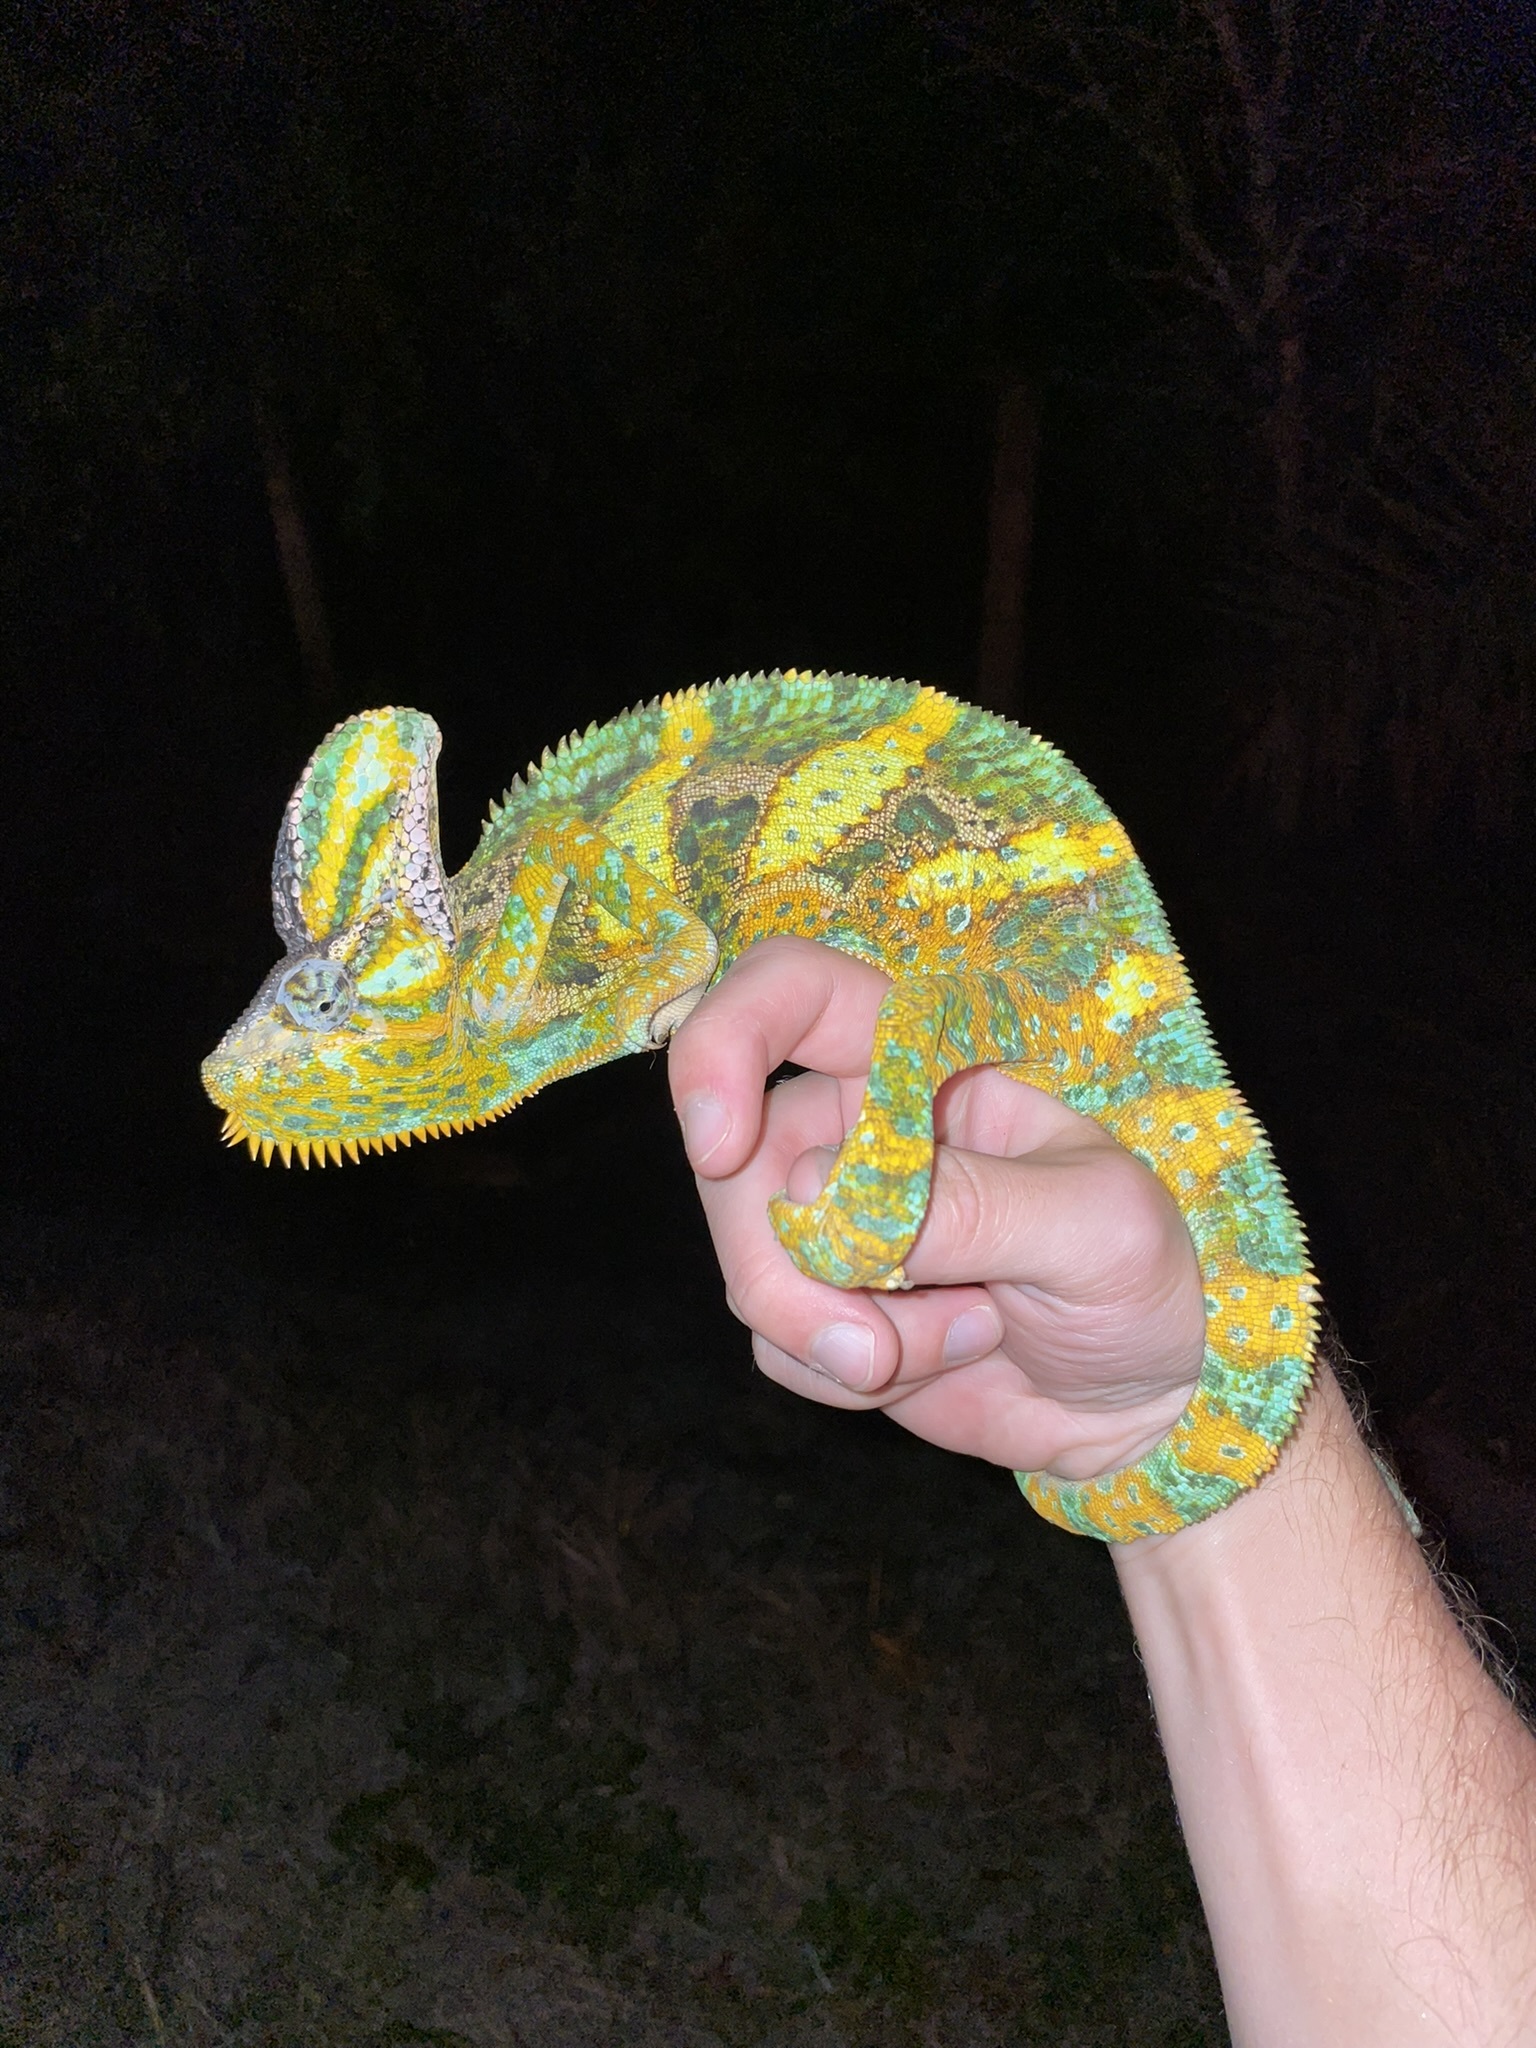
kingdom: Animalia
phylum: Chordata
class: Squamata
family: Chamaeleonidae
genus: Chamaeleo
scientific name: Chamaeleo calyptratus
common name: Veiled chameleon
